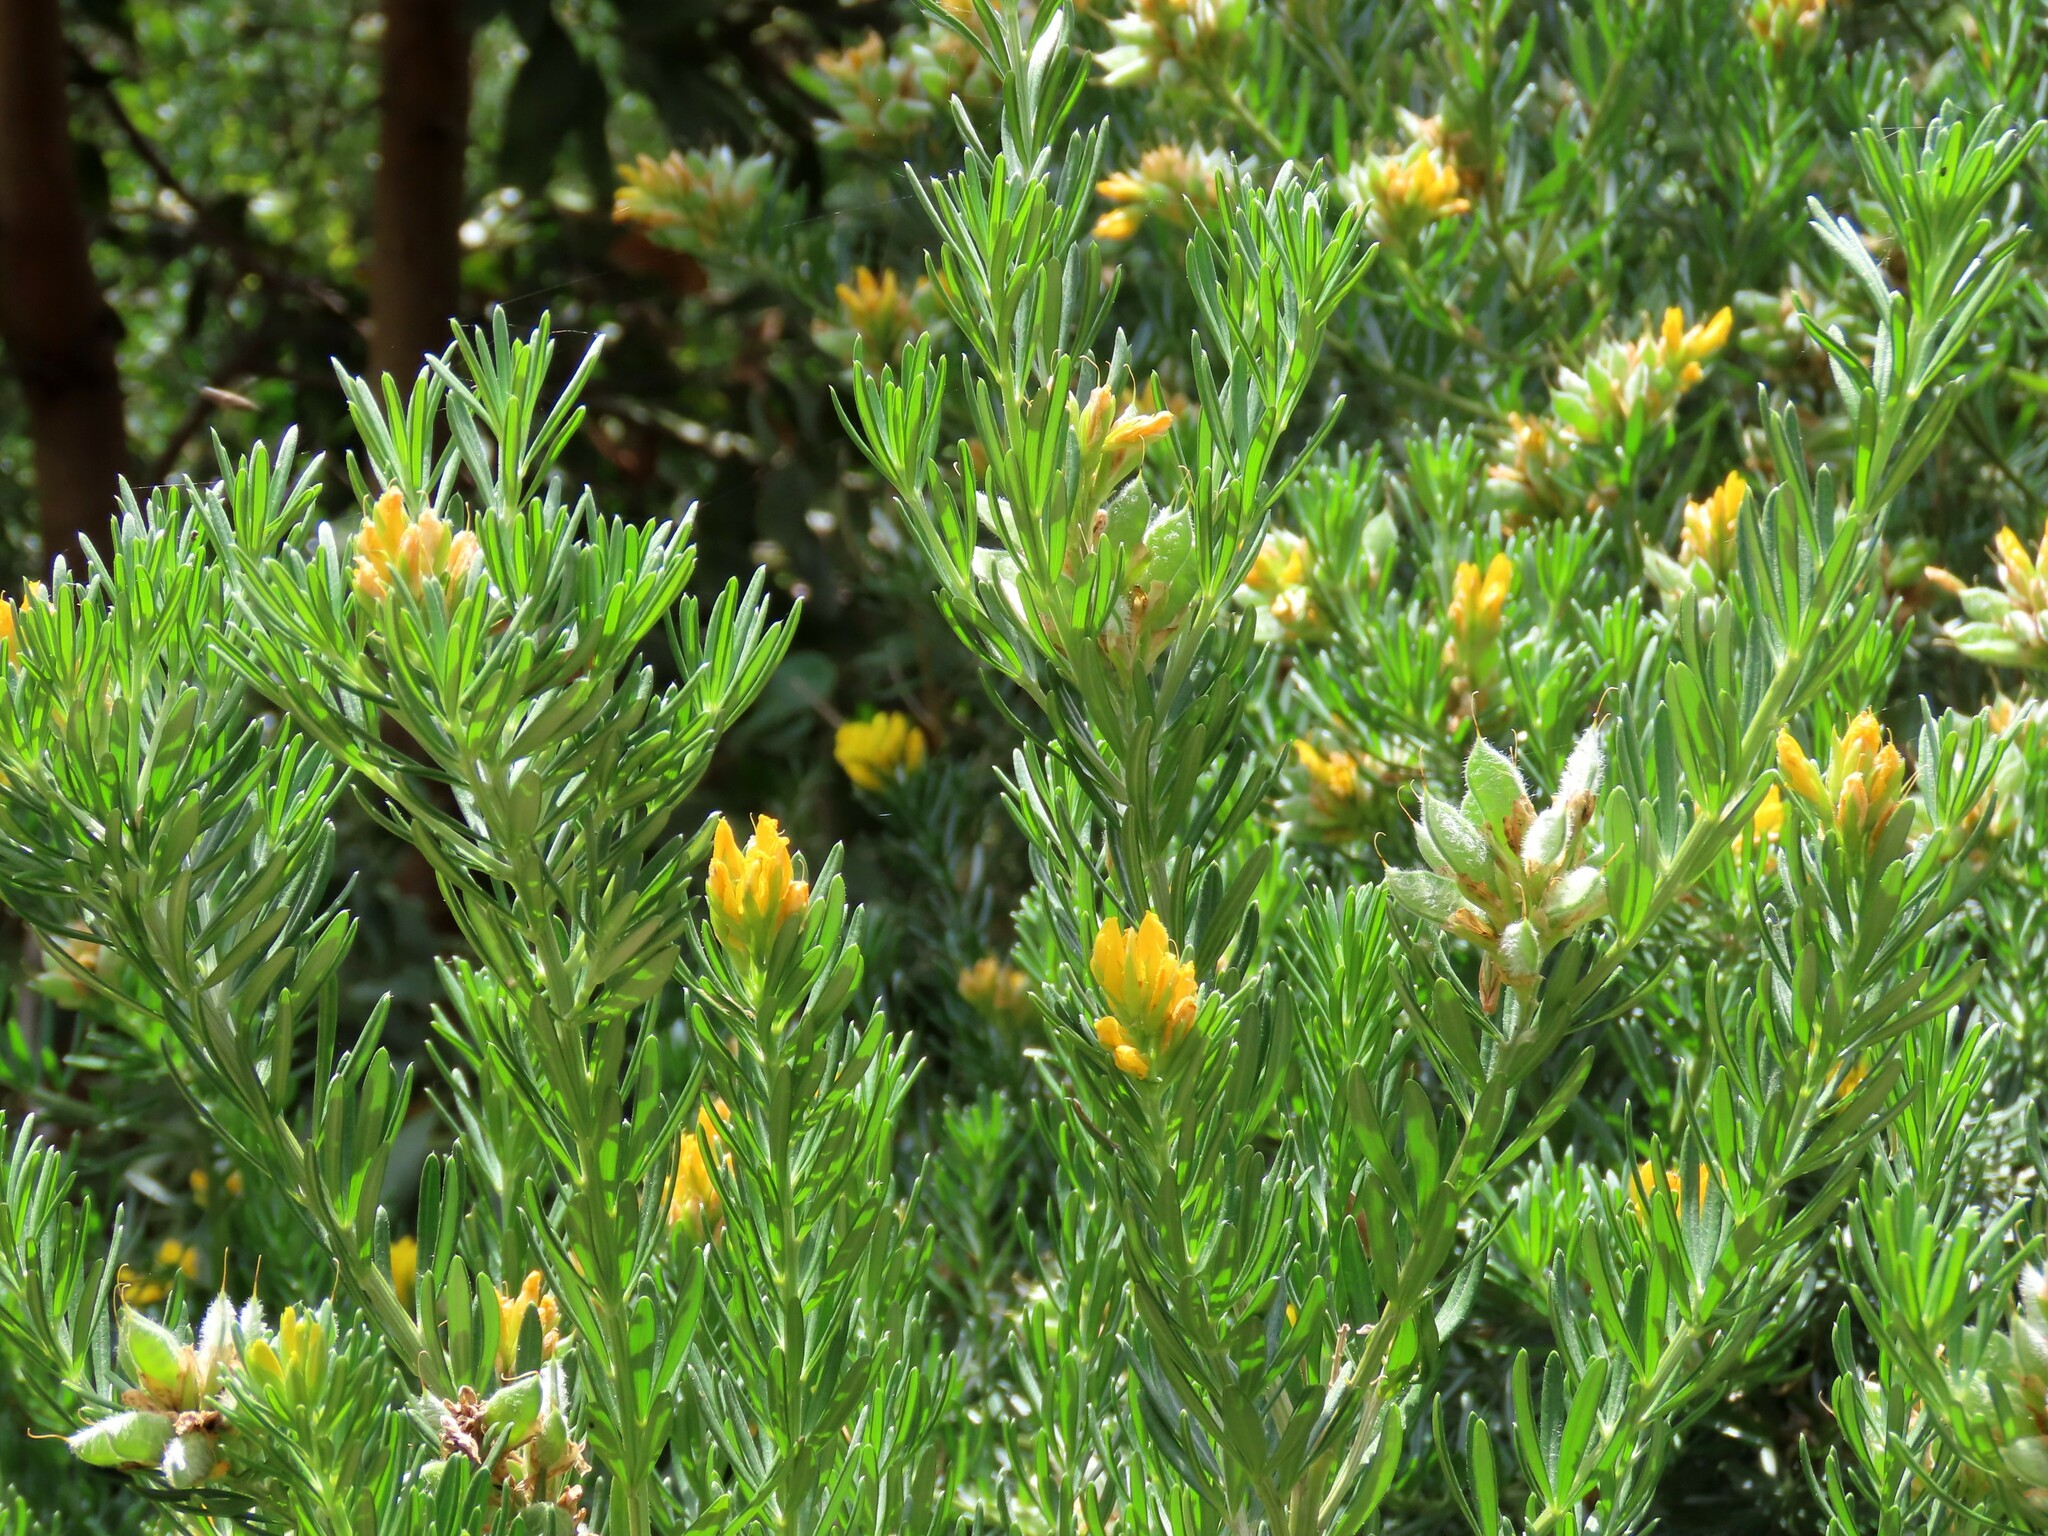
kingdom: Plantae
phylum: Tracheophyta
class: Magnoliopsida
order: Fabales
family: Fabaceae
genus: Genista
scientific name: Genista linifolia
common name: Mediterranean broom
